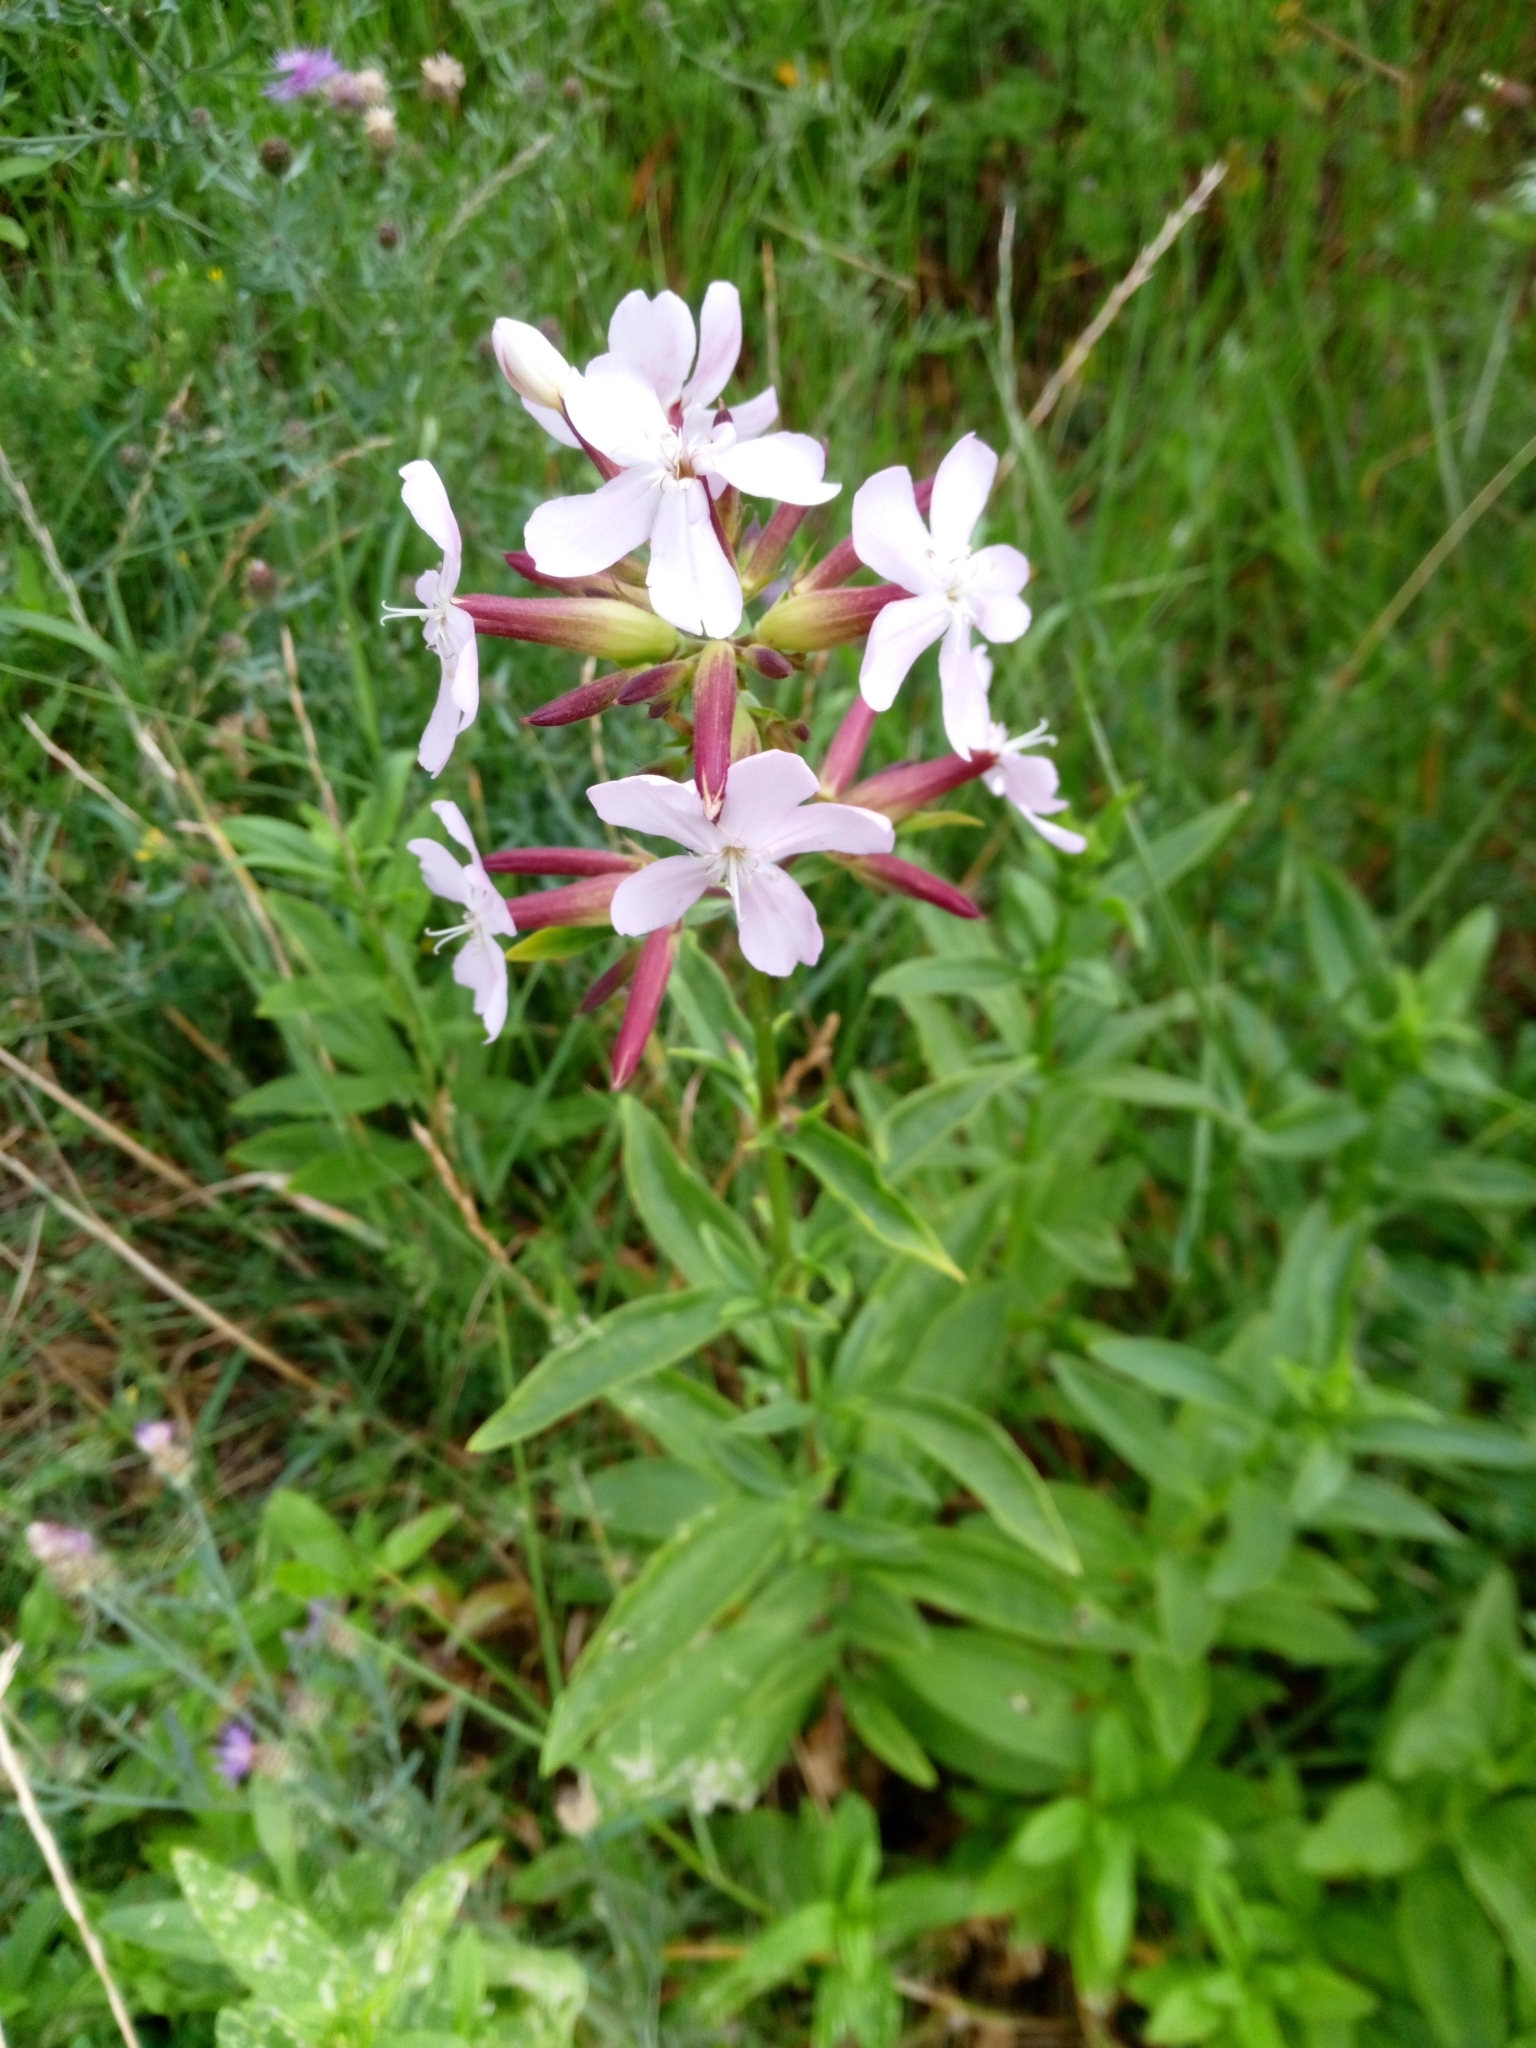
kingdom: Plantae
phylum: Tracheophyta
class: Magnoliopsida
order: Caryophyllales
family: Caryophyllaceae
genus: Saponaria
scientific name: Saponaria officinalis
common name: Soapwort
